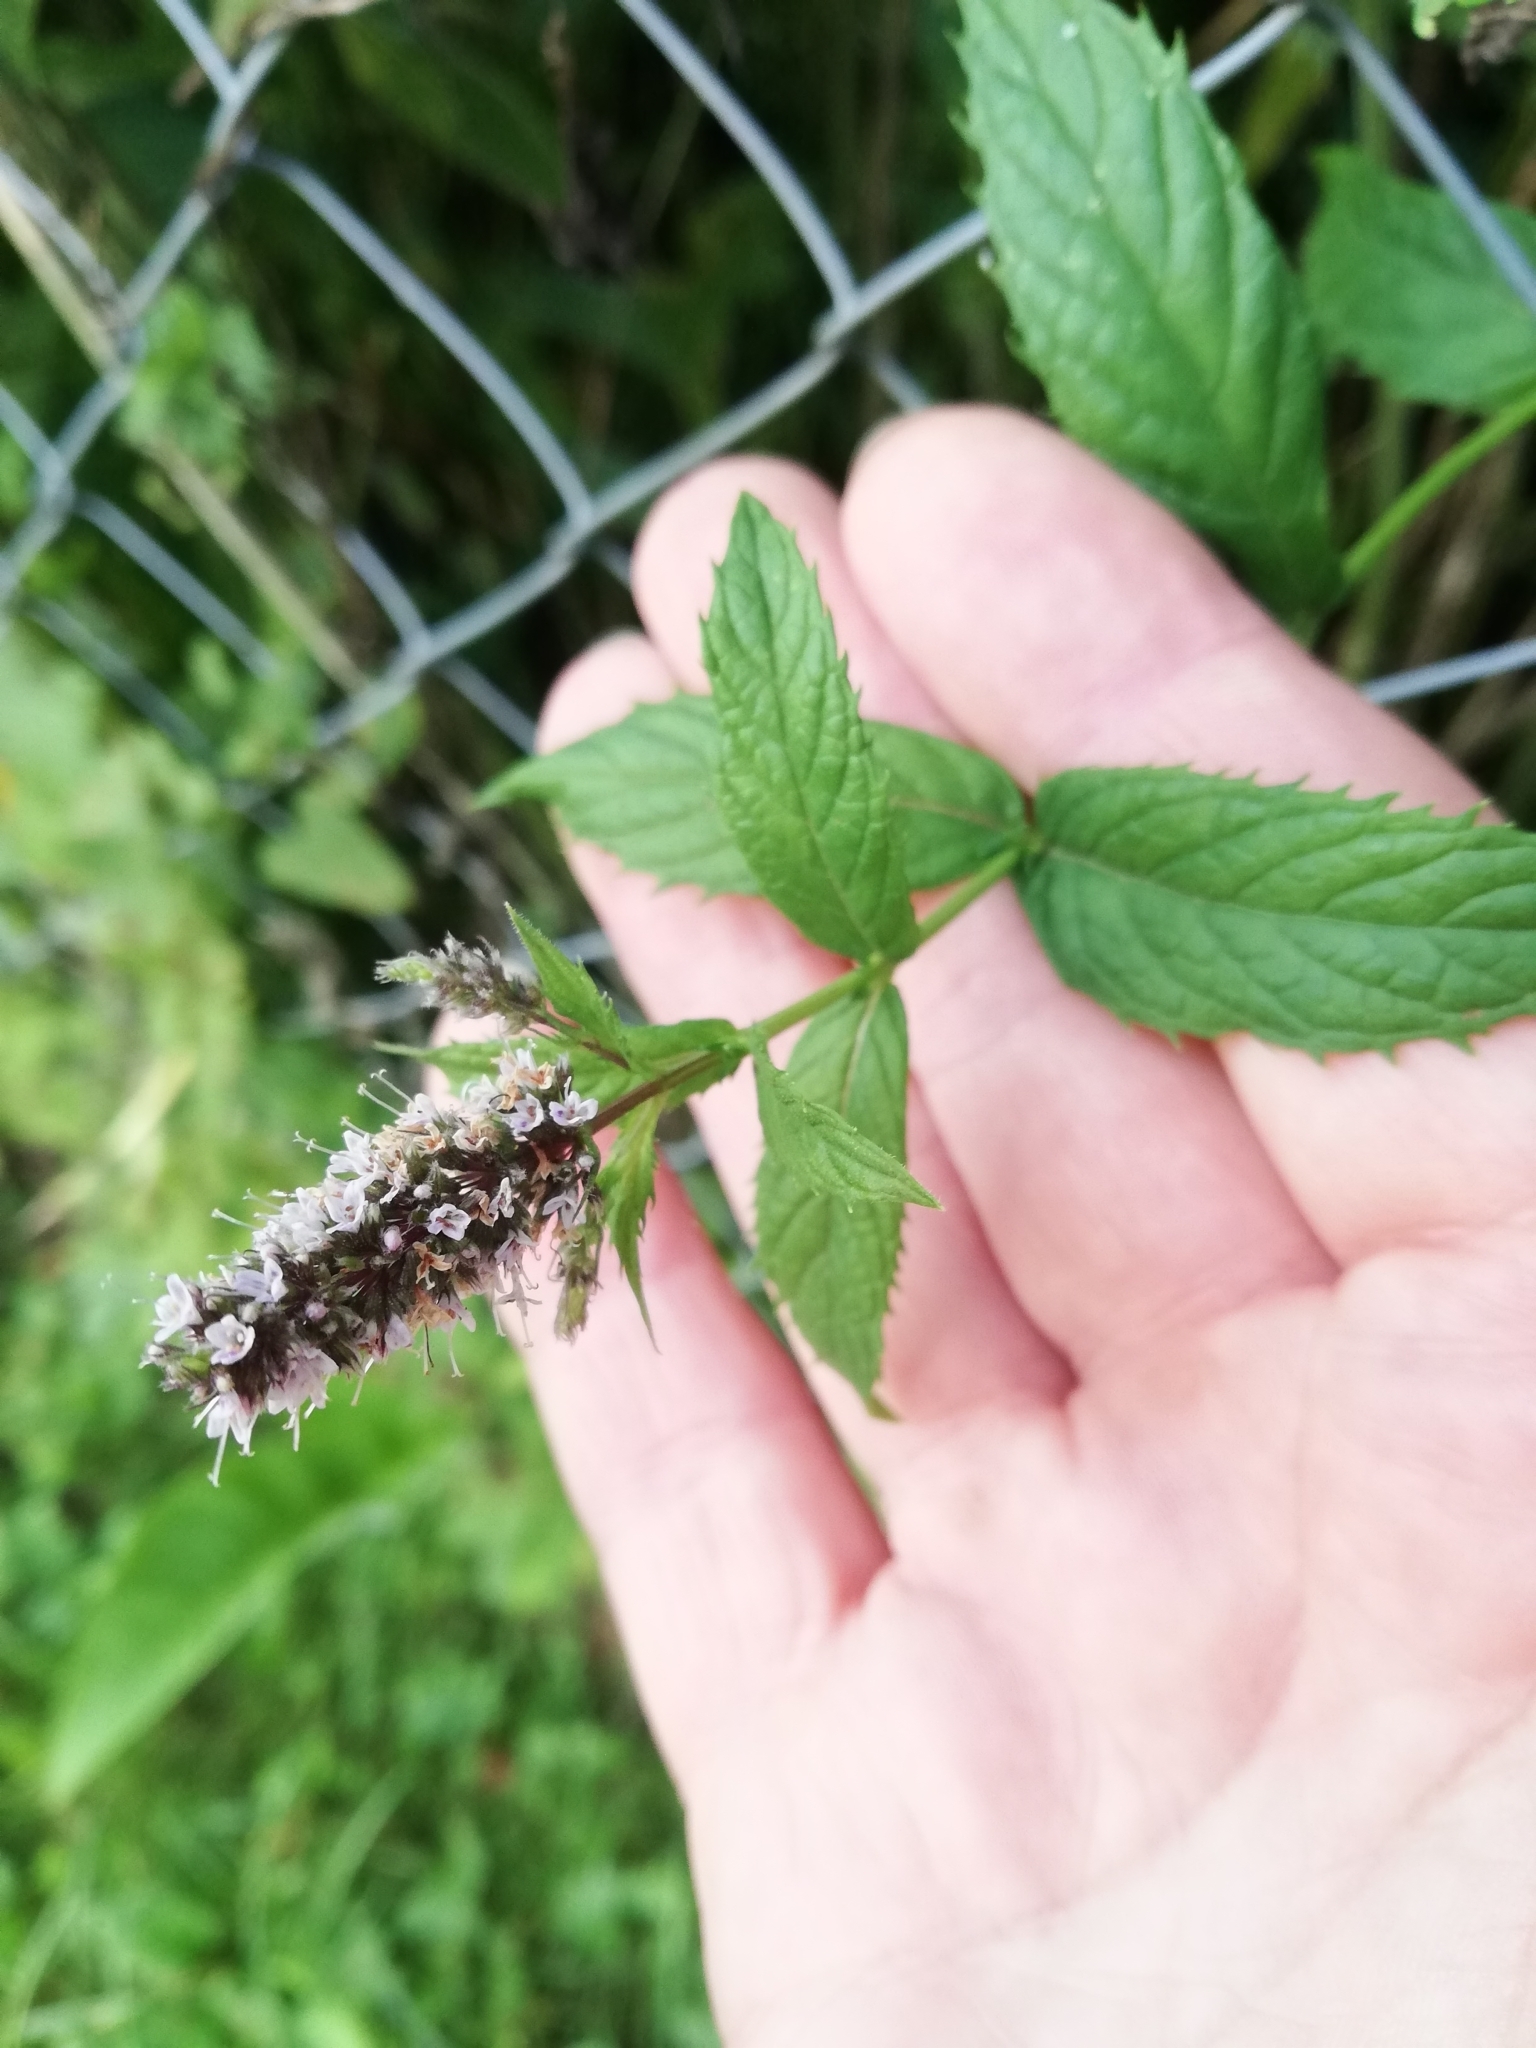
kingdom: Plantae
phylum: Tracheophyta
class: Magnoliopsida
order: Lamiales
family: Lamiaceae
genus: Mentha
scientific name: Mentha spicata
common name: Spearmint
